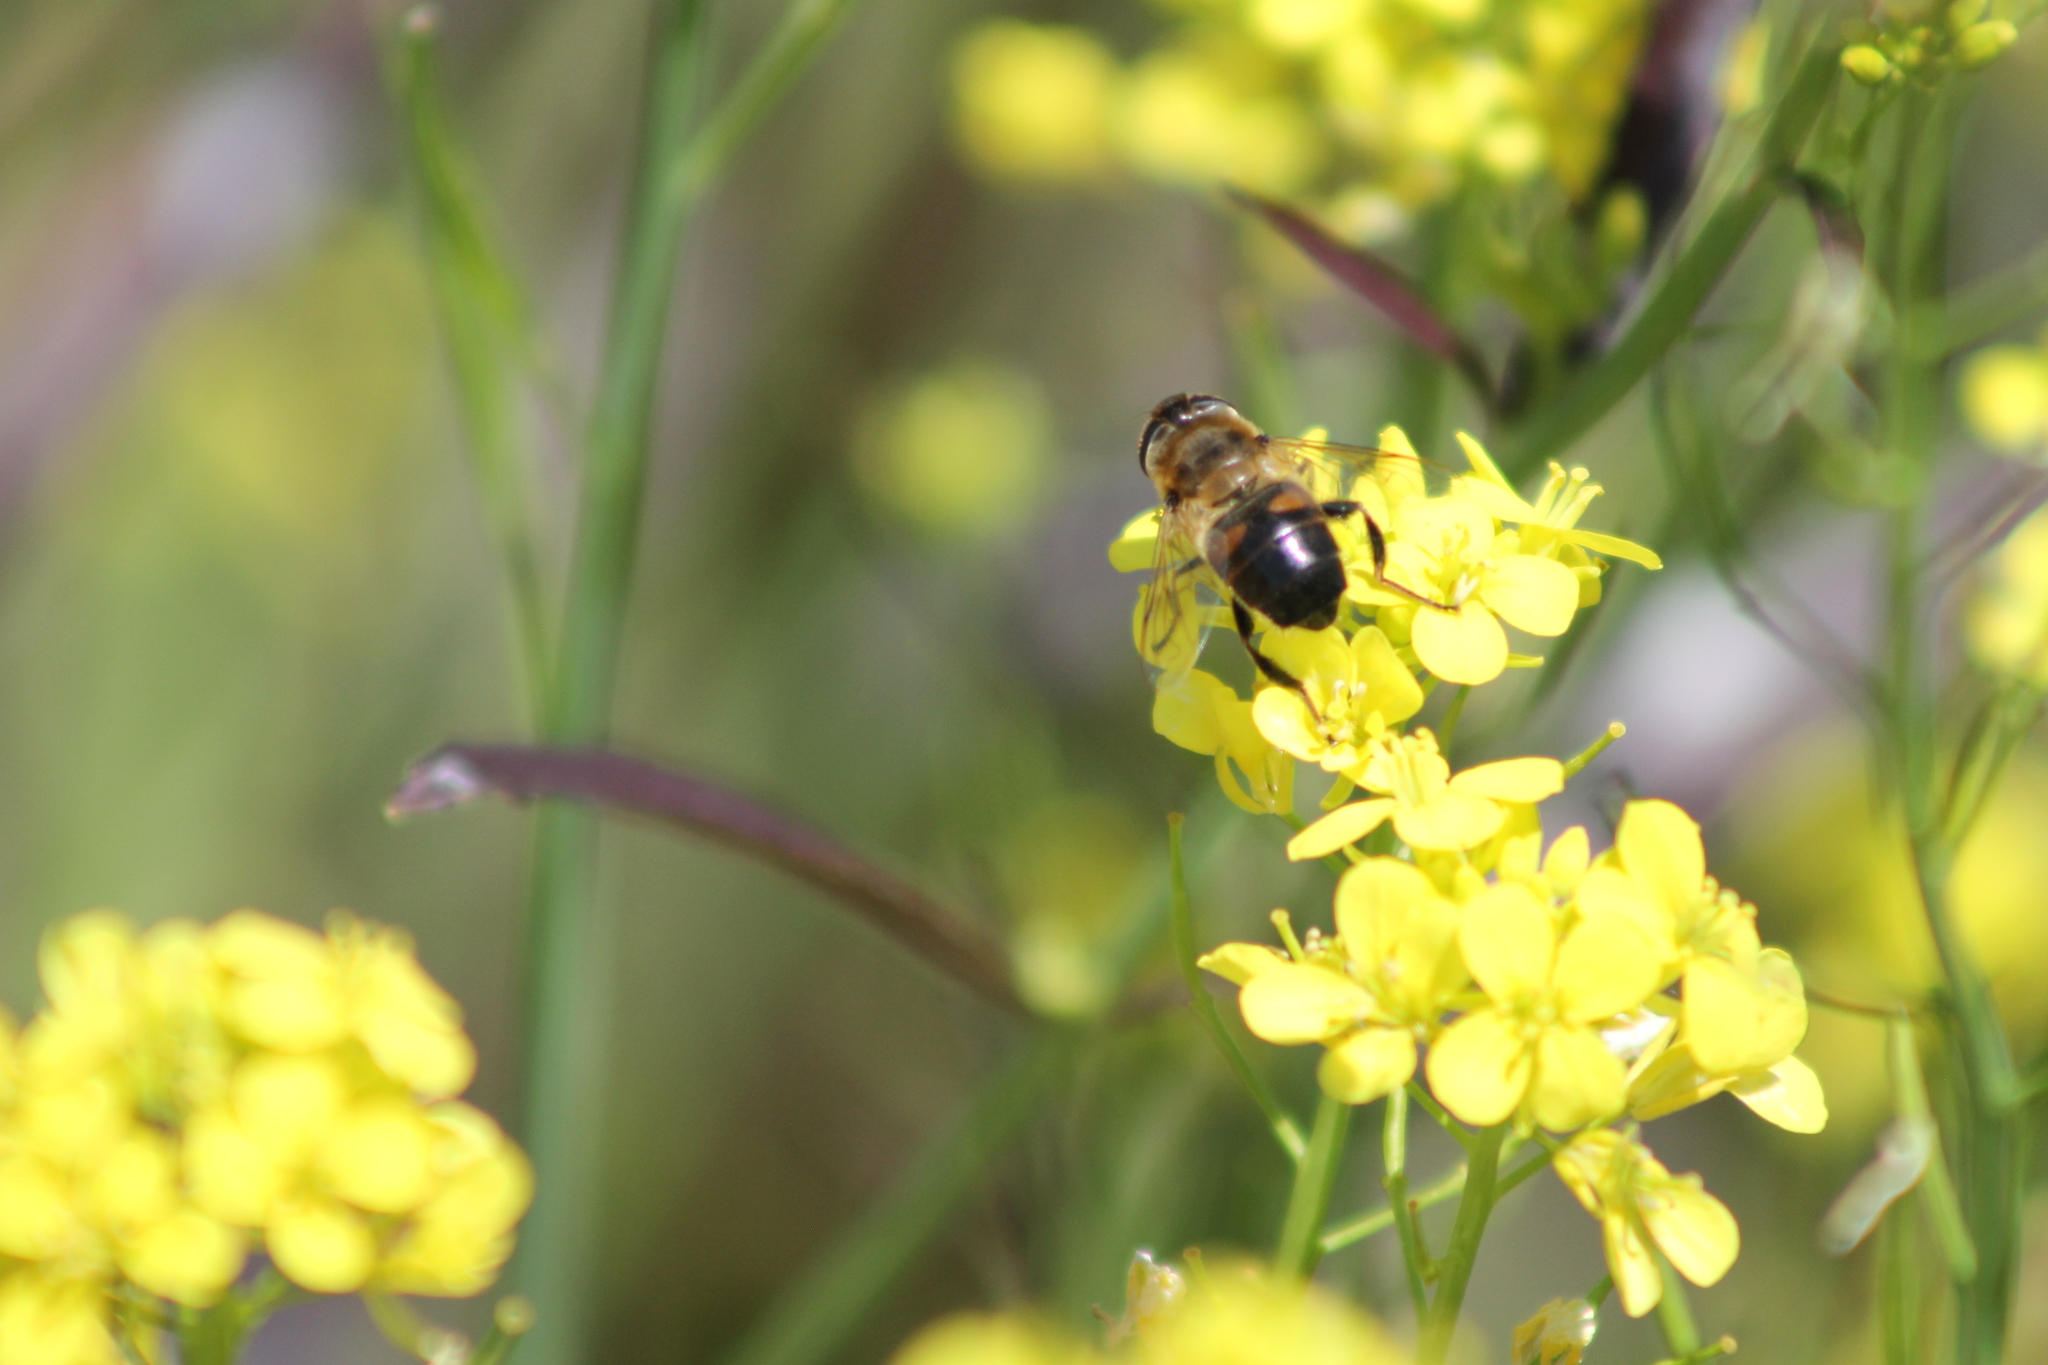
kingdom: Animalia
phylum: Arthropoda
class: Insecta
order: Diptera
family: Syrphidae
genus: Eristalis
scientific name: Eristalis tenax
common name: Drone fly
